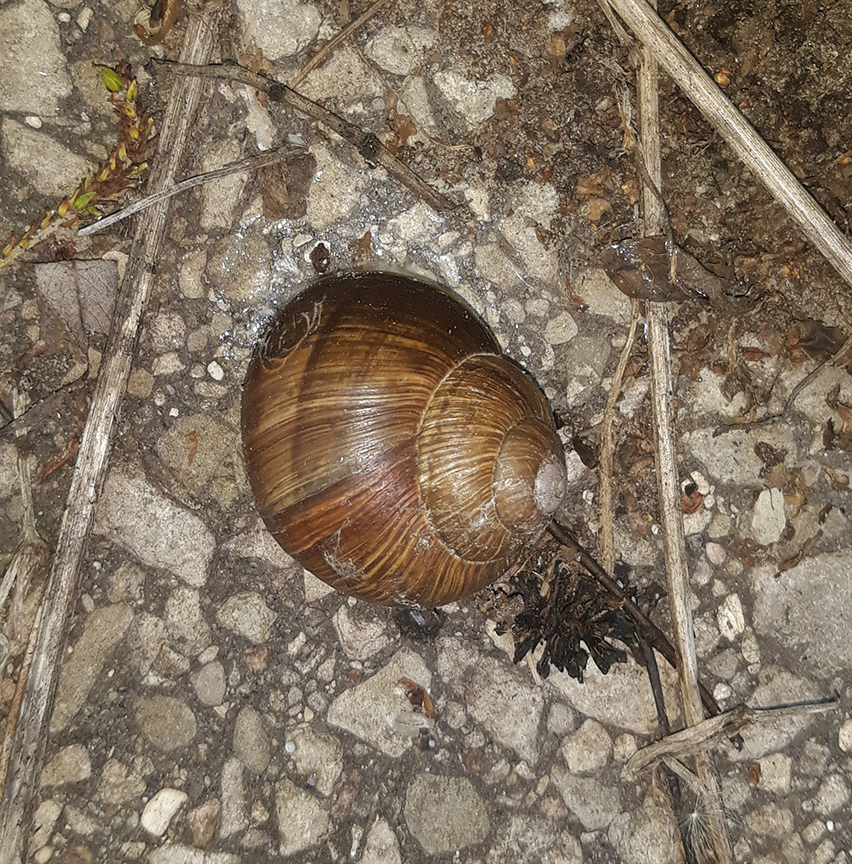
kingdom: Animalia
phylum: Mollusca
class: Gastropoda
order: Stylommatophora
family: Helicidae
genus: Helix
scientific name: Helix pomatia
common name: Roman snail
